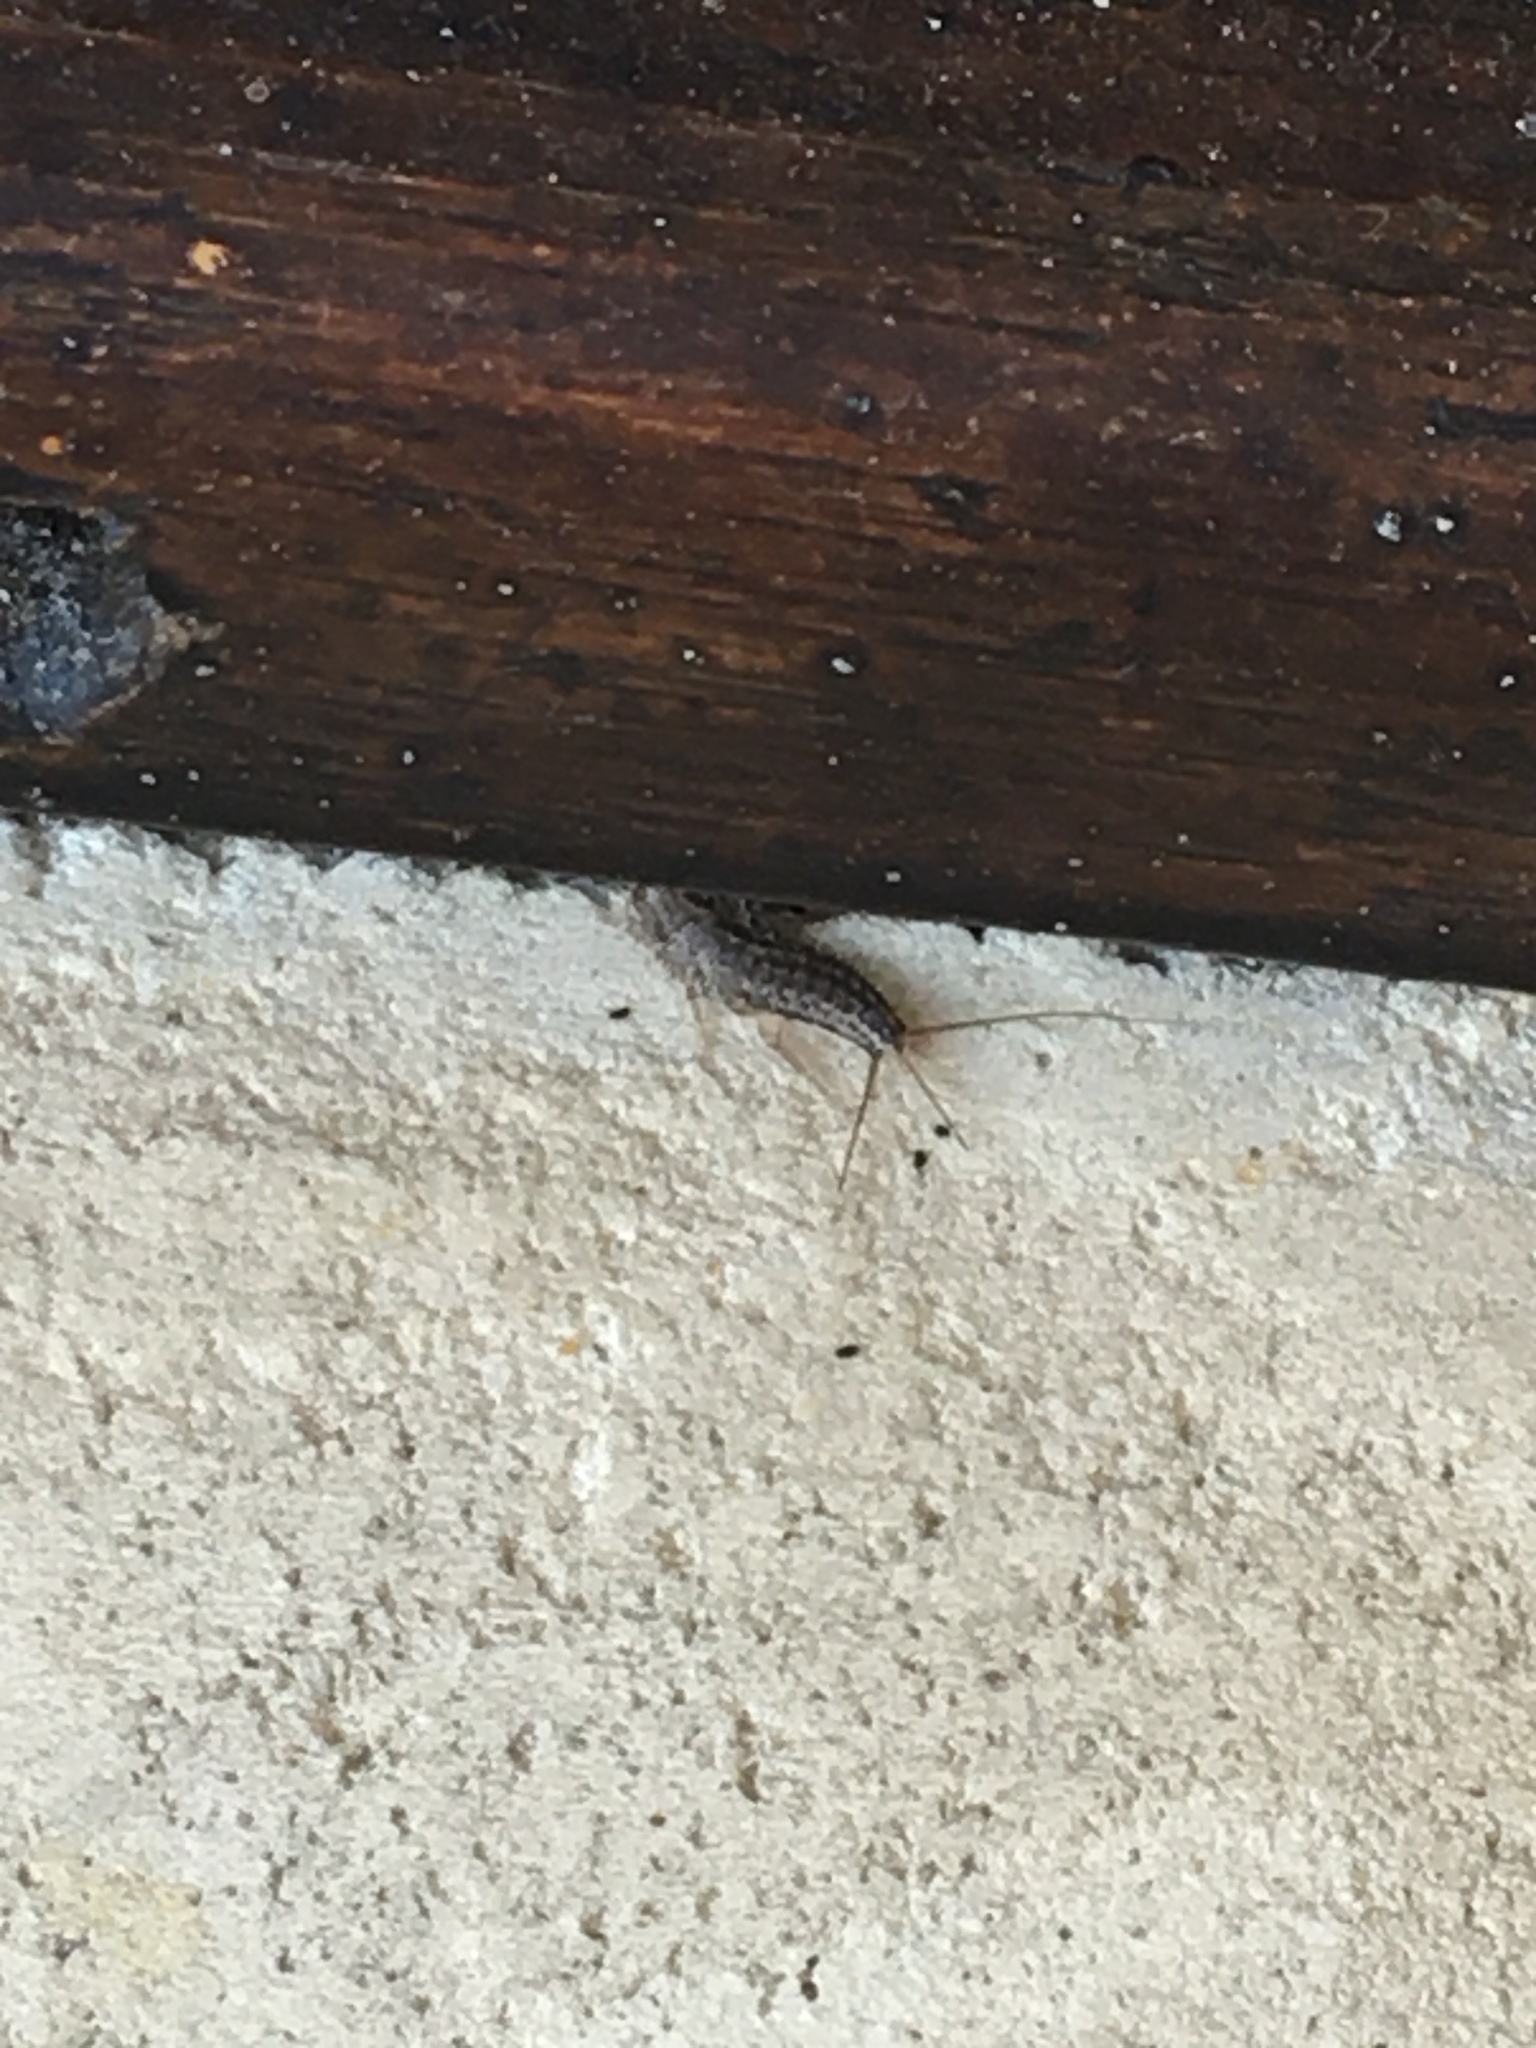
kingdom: Animalia
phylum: Arthropoda
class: Insecta
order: Zygentoma
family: Lepismatidae
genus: Ctenolepisma
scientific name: Ctenolepisma lineata
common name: Four-lined silverfish
